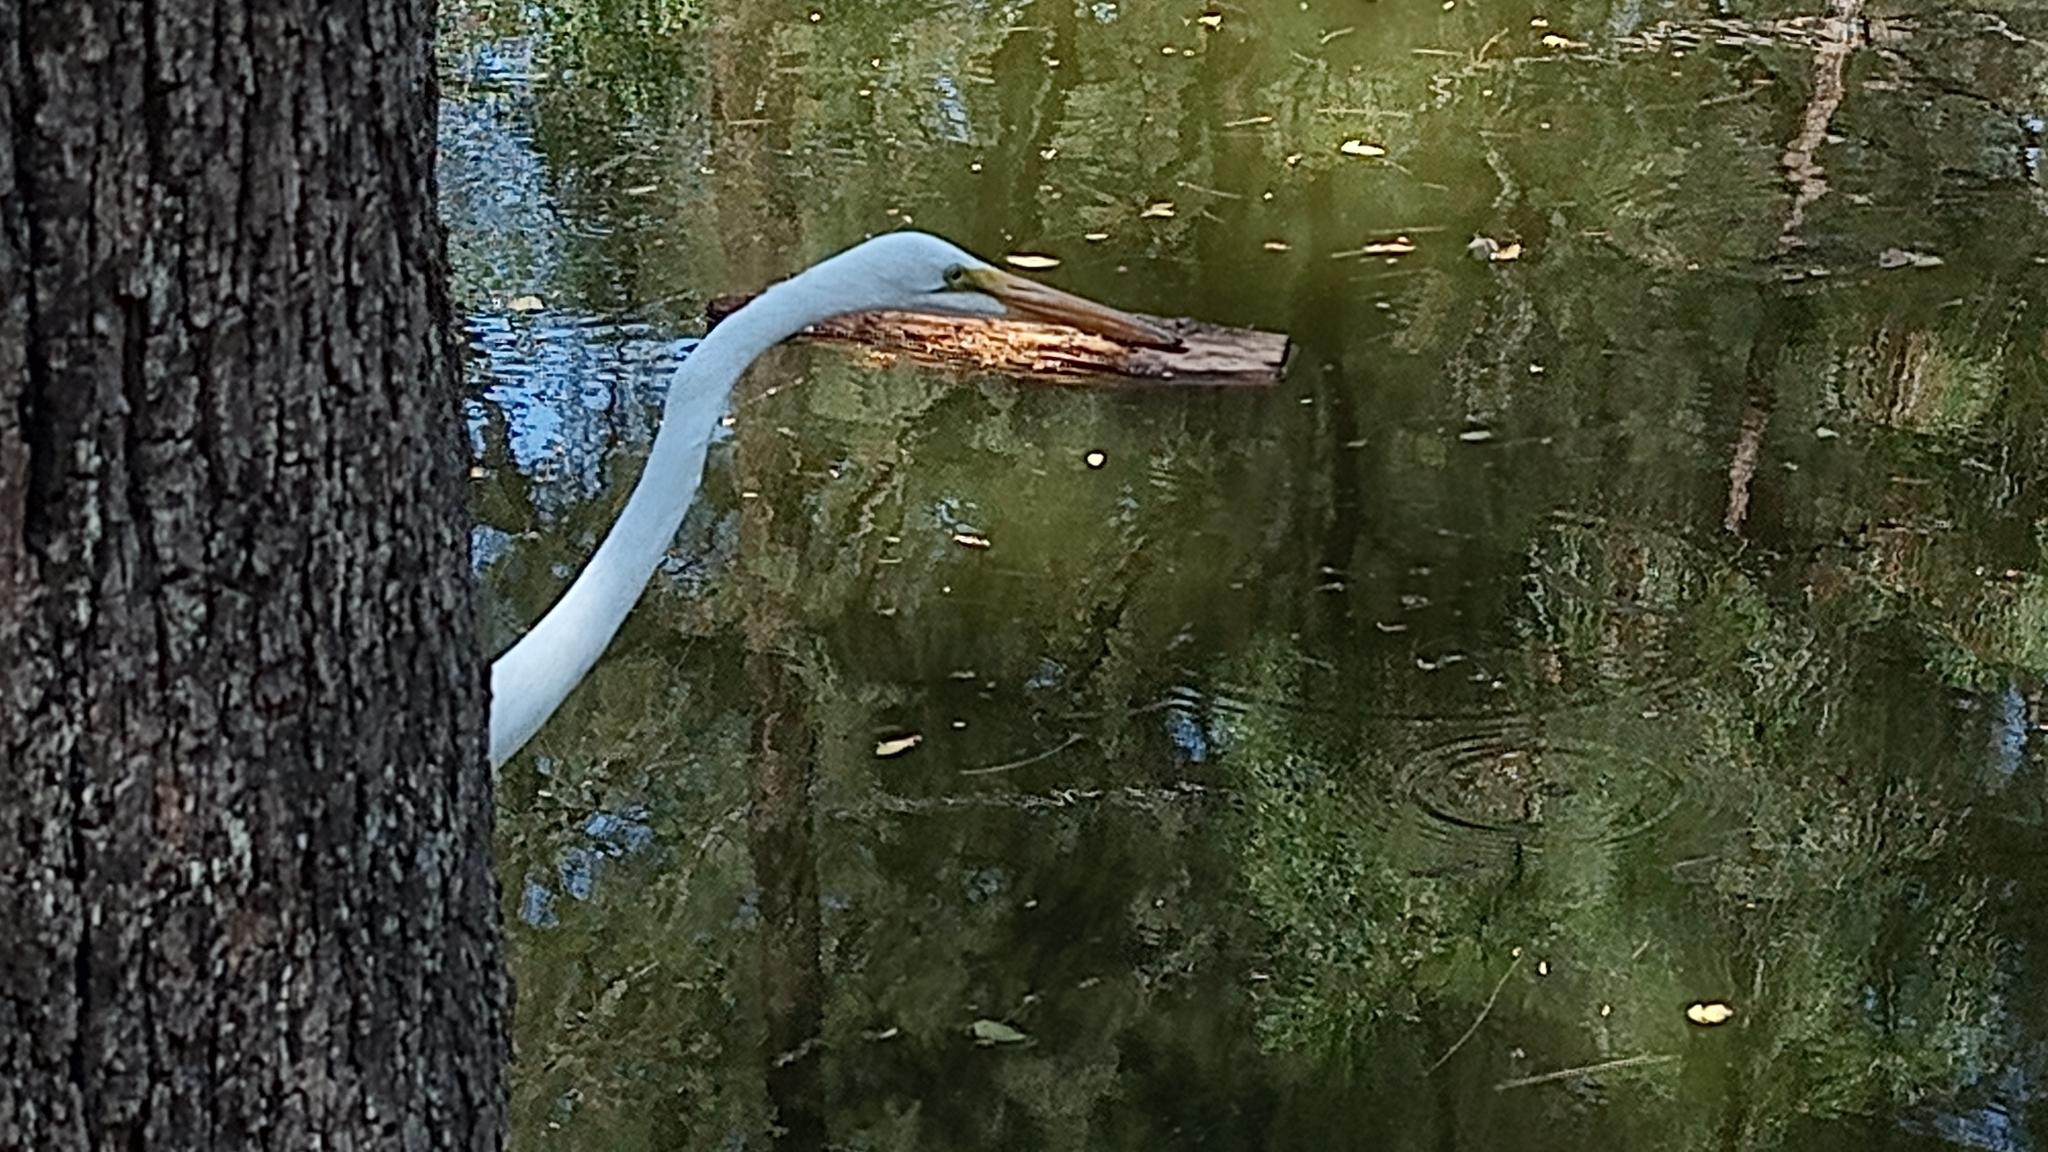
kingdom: Animalia
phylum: Chordata
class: Aves
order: Pelecaniformes
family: Ardeidae
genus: Ardea
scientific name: Ardea alba
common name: Great egret
